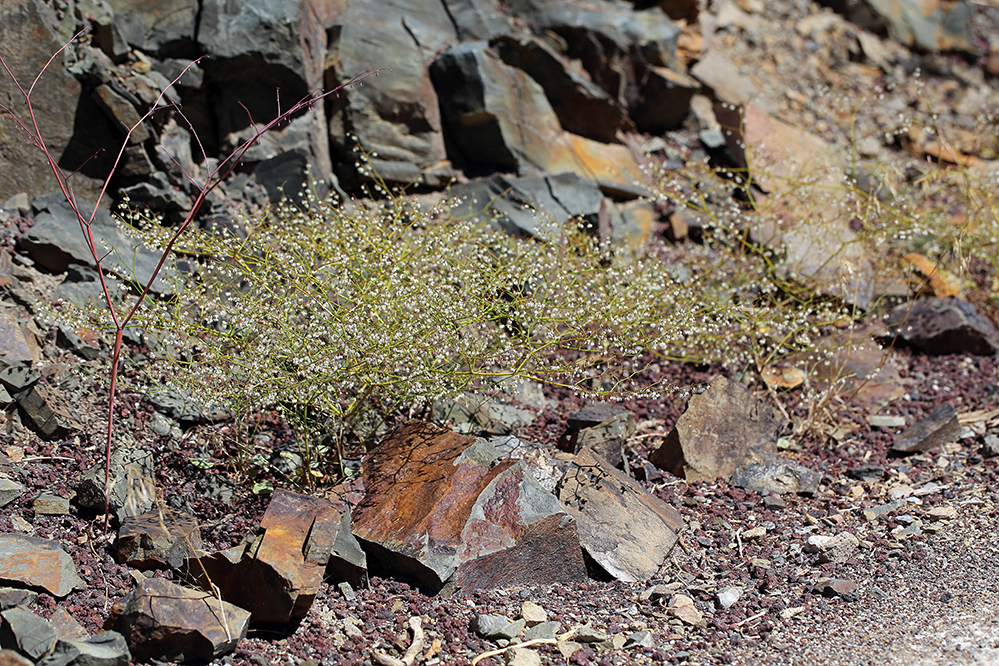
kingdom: Plantae
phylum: Tracheophyta
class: Magnoliopsida
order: Caryophyllales
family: Polygonaceae
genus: Eriogonum
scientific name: Eriogonum brachypodum
